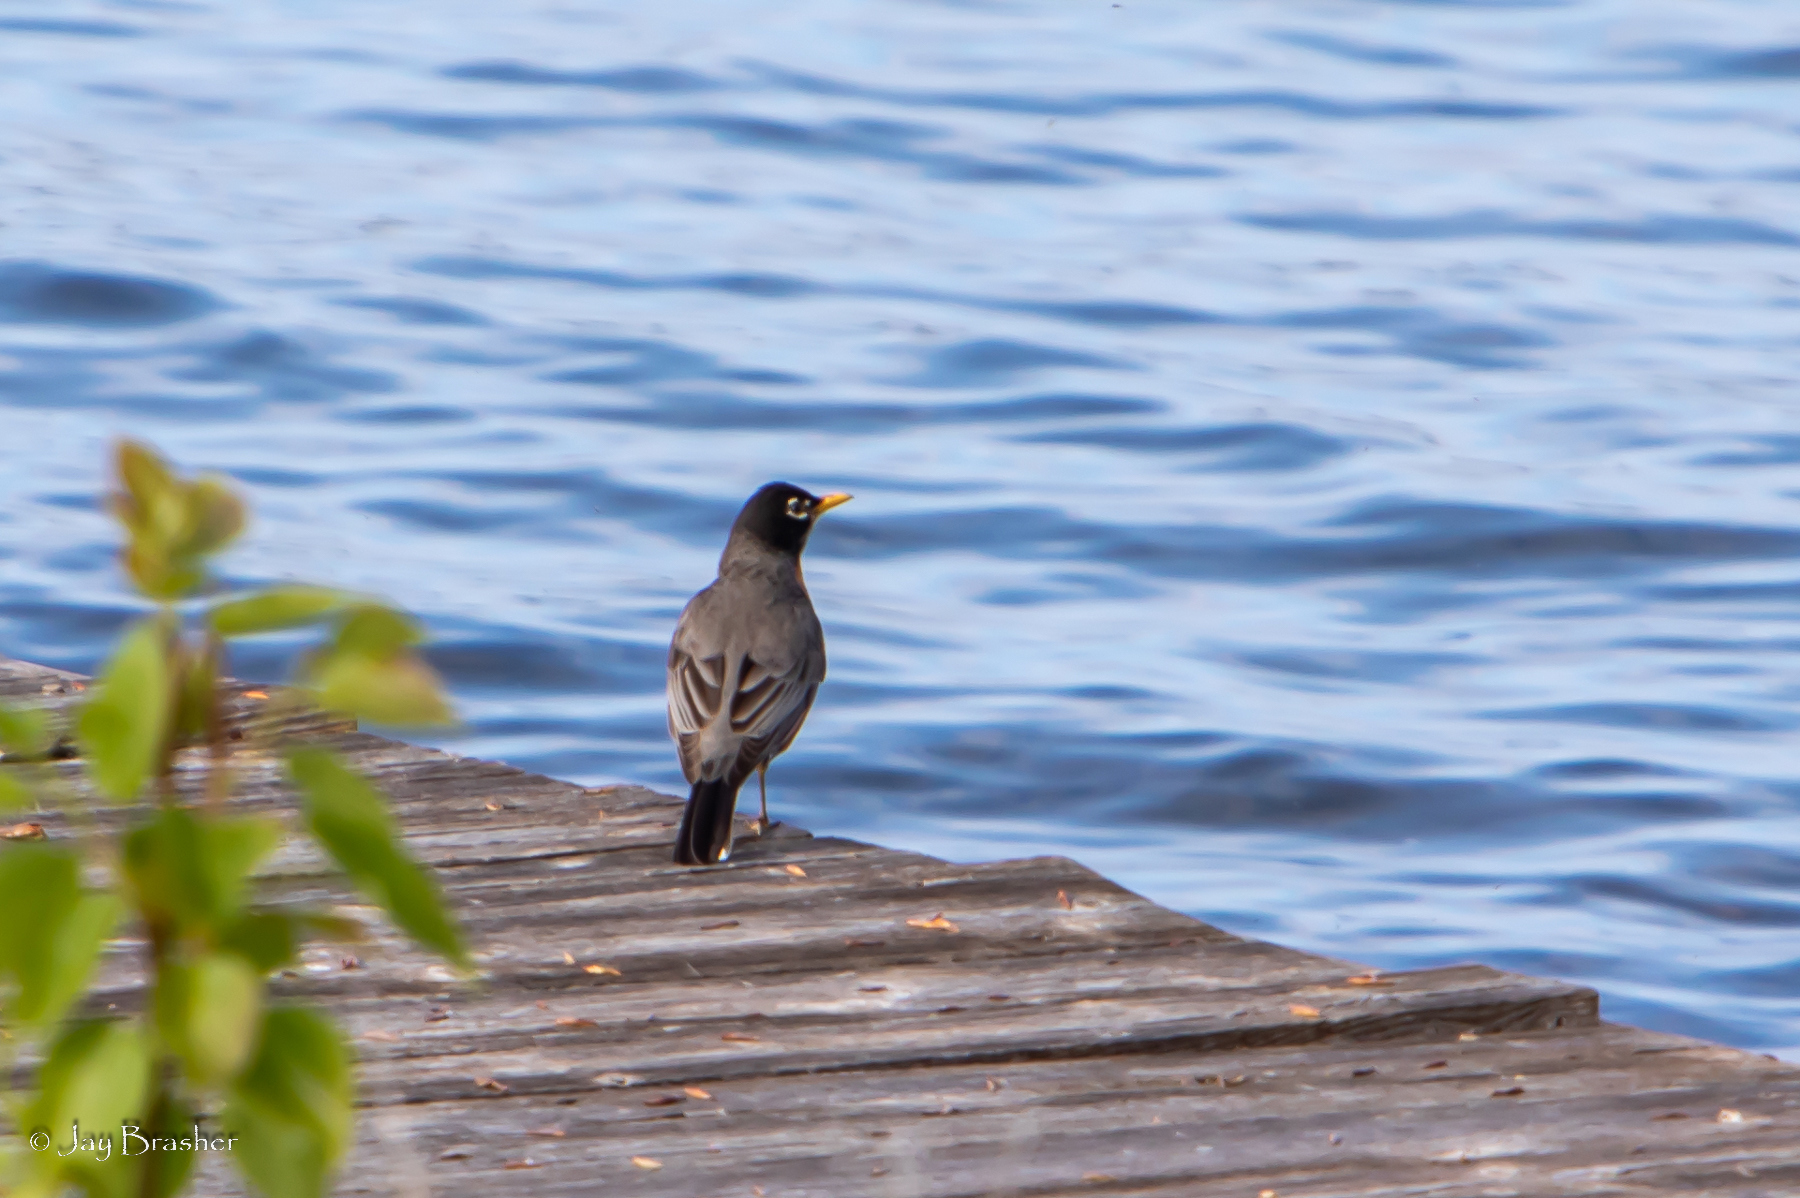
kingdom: Animalia
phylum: Chordata
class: Aves
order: Passeriformes
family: Turdidae
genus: Turdus
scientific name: Turdus migratorius
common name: American robin
